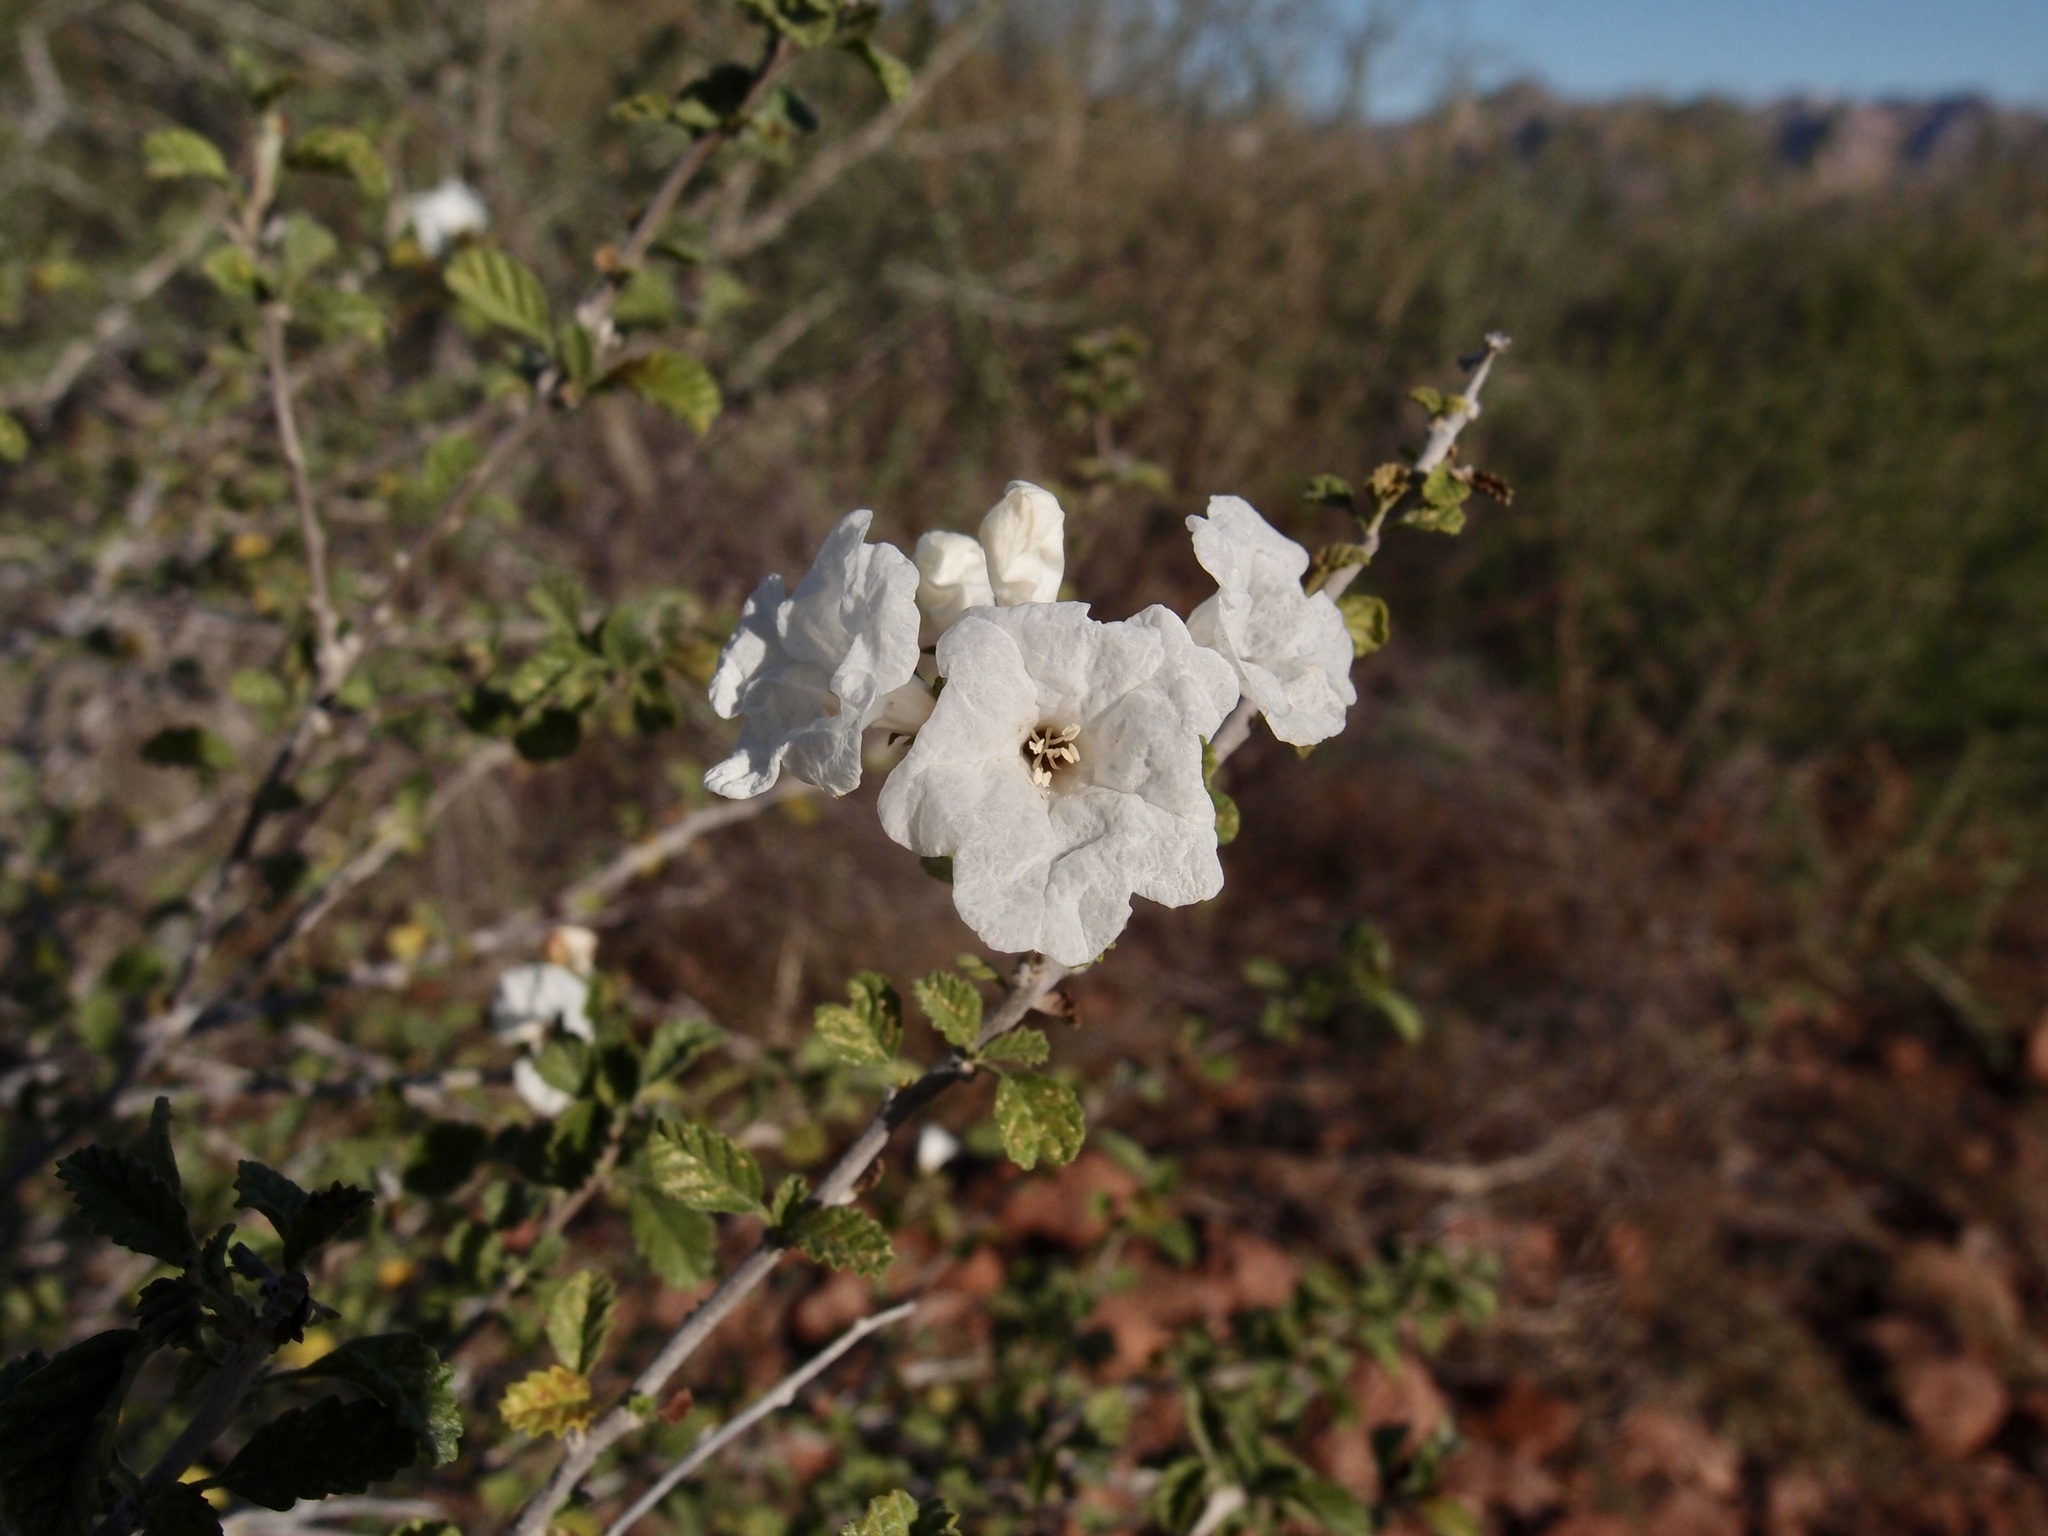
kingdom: Plantae
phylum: Tracheophyta
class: Magnoliopsida
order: Boraginales
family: Cordiaceae
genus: Cordia
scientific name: Cordia parvifolia
